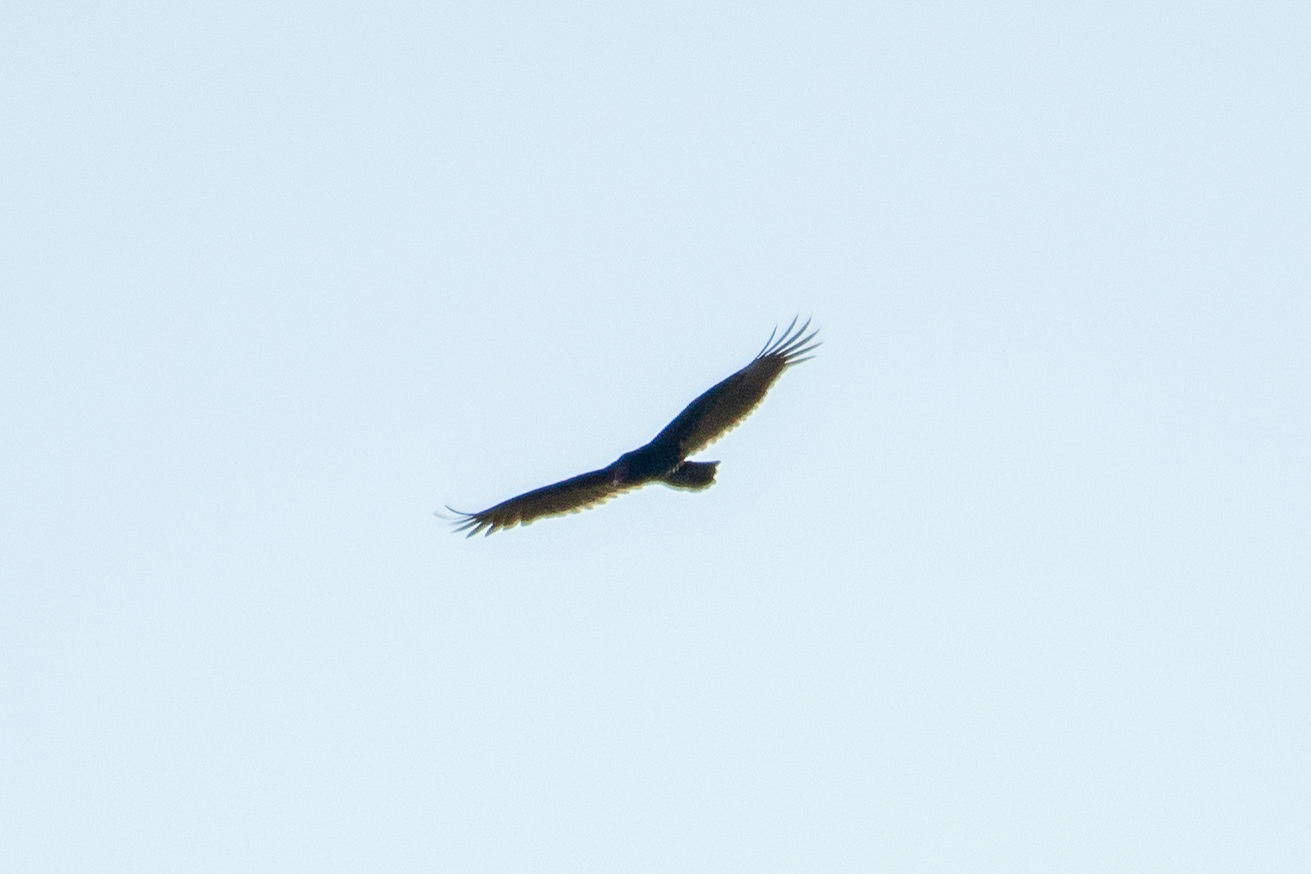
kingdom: Animalia
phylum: Chordata
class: Aves
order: Accipitriformes
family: Cathartidae
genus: Cathartes
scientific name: Cathartes aura
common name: Turkey vulture
